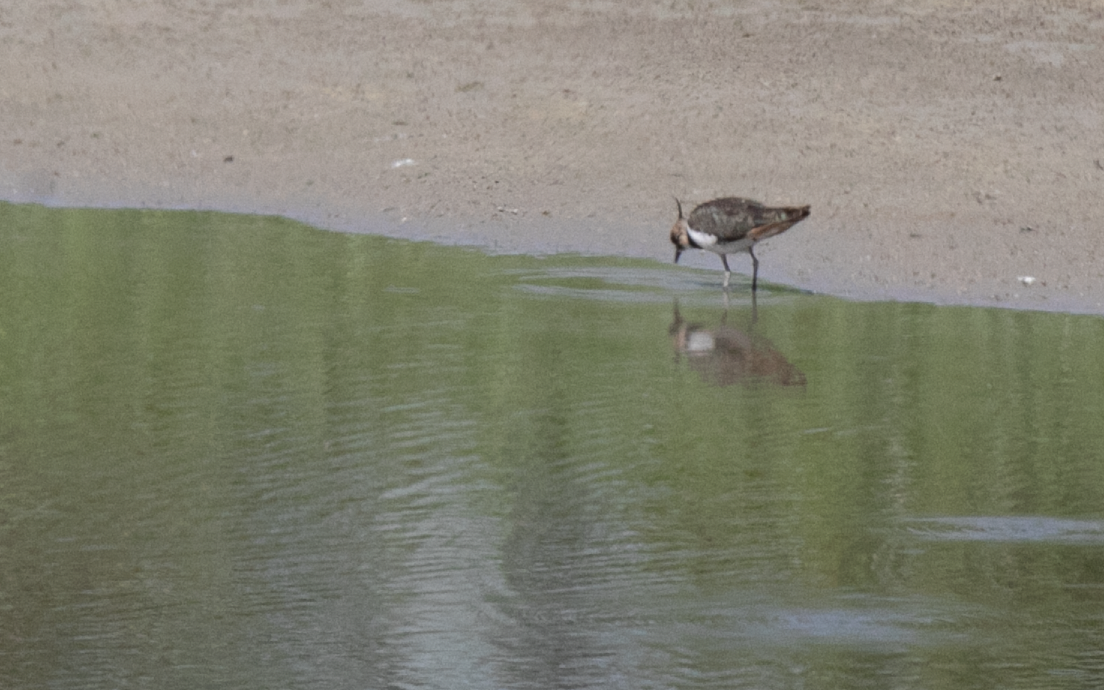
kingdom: Animalia
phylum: Chordata
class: Aves
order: Charadriiformes
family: Charadriidae
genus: Vanellus
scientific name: Vanellus vanellus
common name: Northern lapwing
